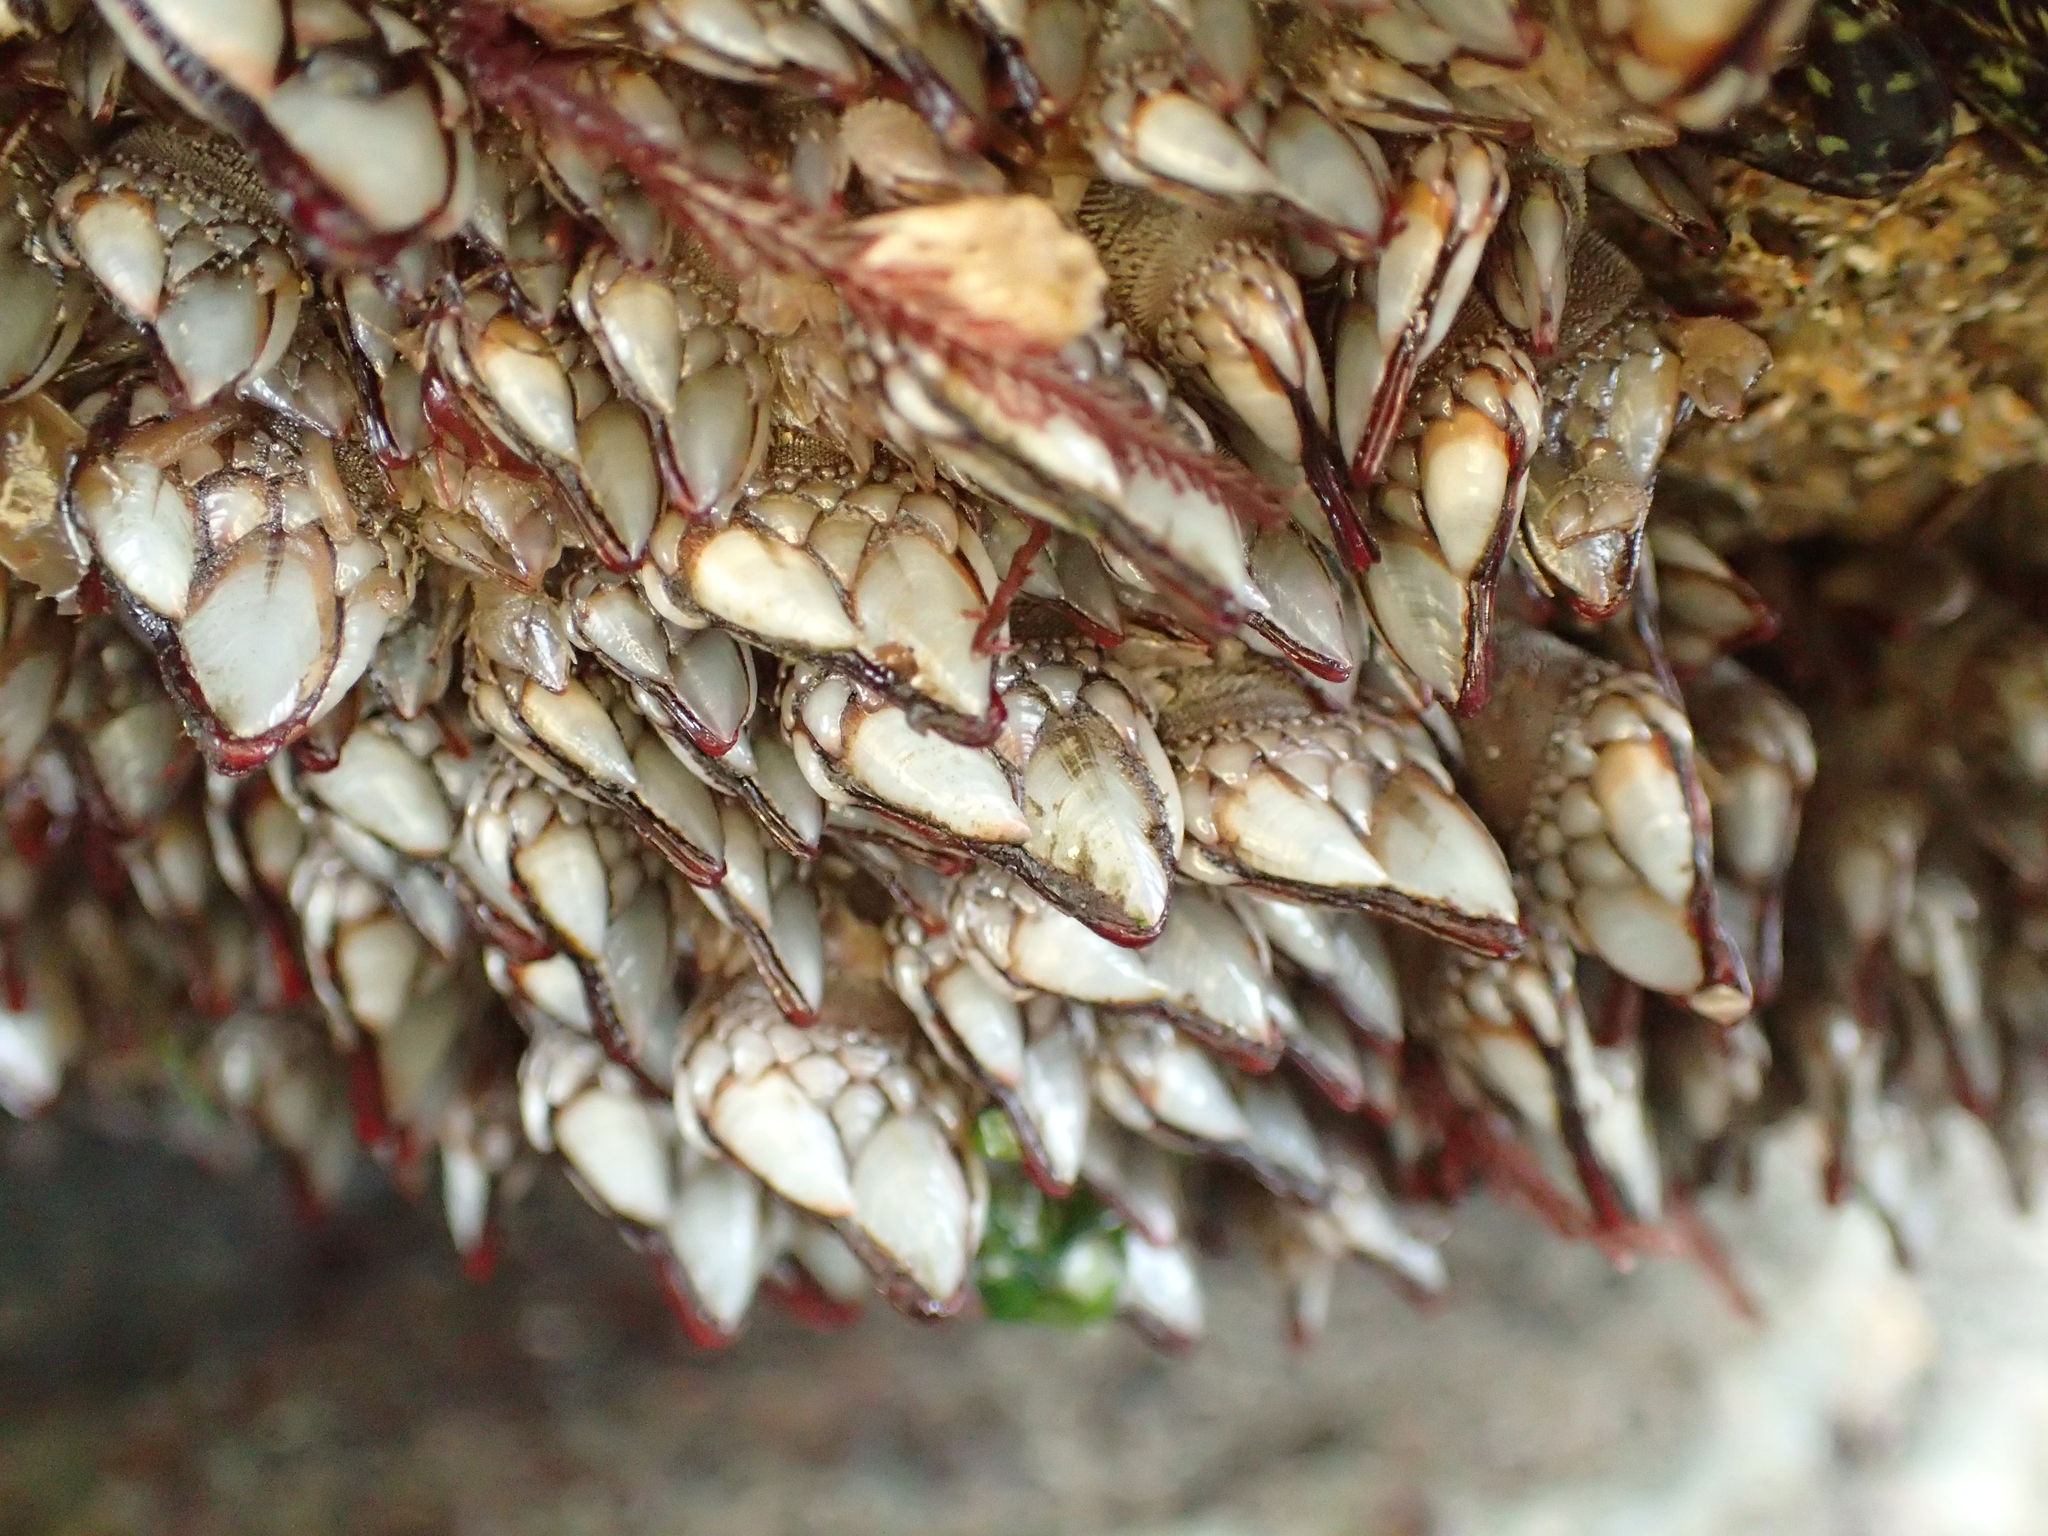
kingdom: Animalia
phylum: Arthropoda
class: Maxillopoda
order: Pedunculata
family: Pollicipedidae
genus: Pollicipes
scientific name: Pollicipes polymerus
